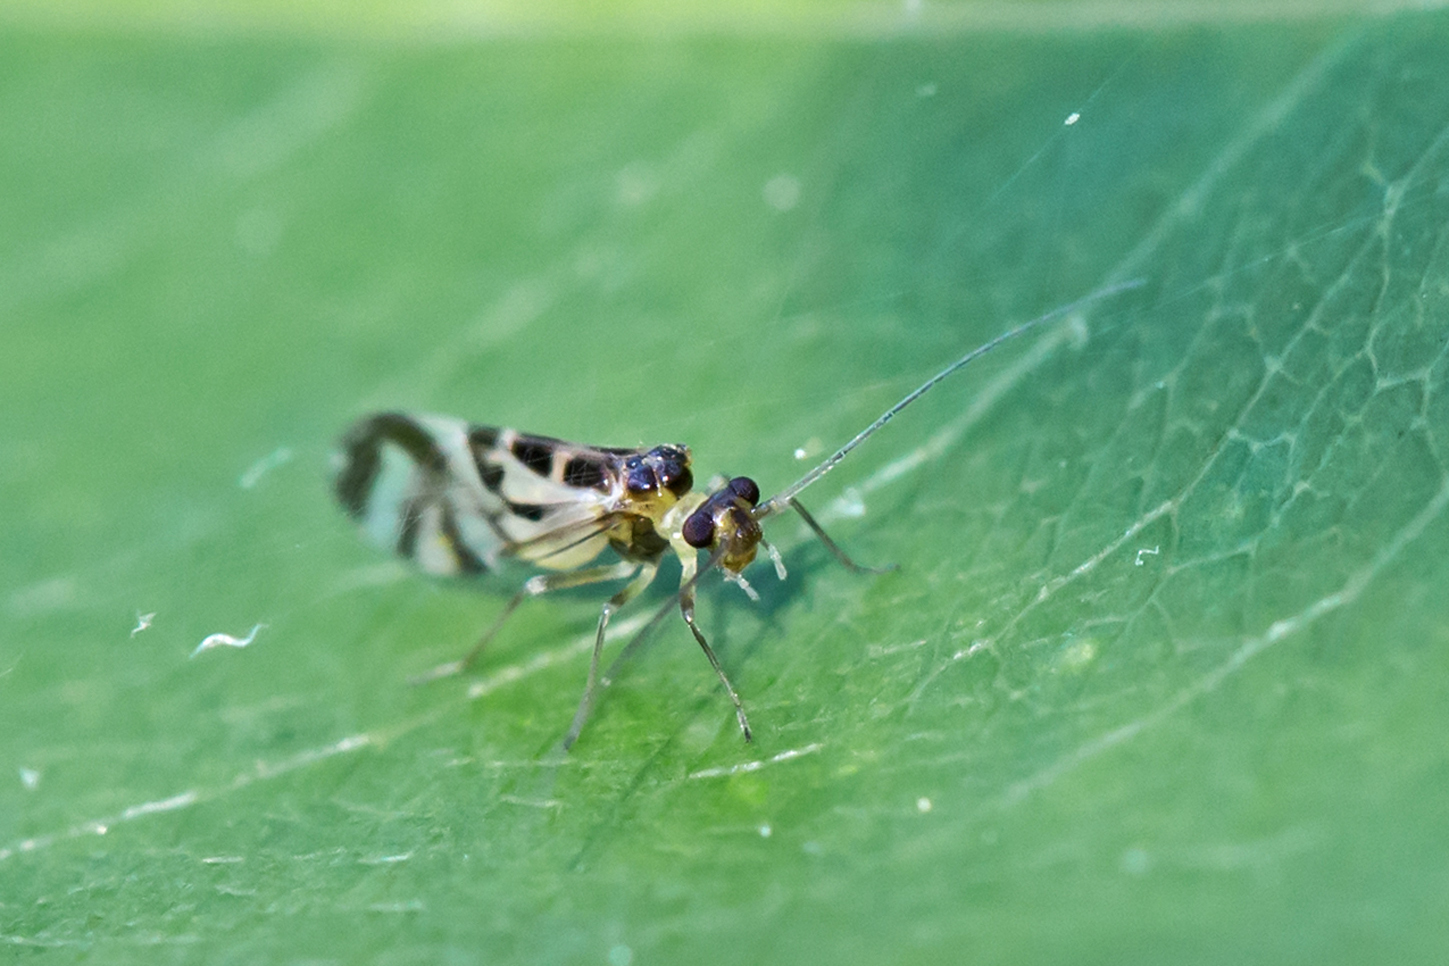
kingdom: Animalia
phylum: Arthropoda
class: Insecta
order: Psocodea
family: Stenopsocidae
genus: Graphopsocus
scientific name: Graphopsocus cruciatus
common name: Lizard bark louse
